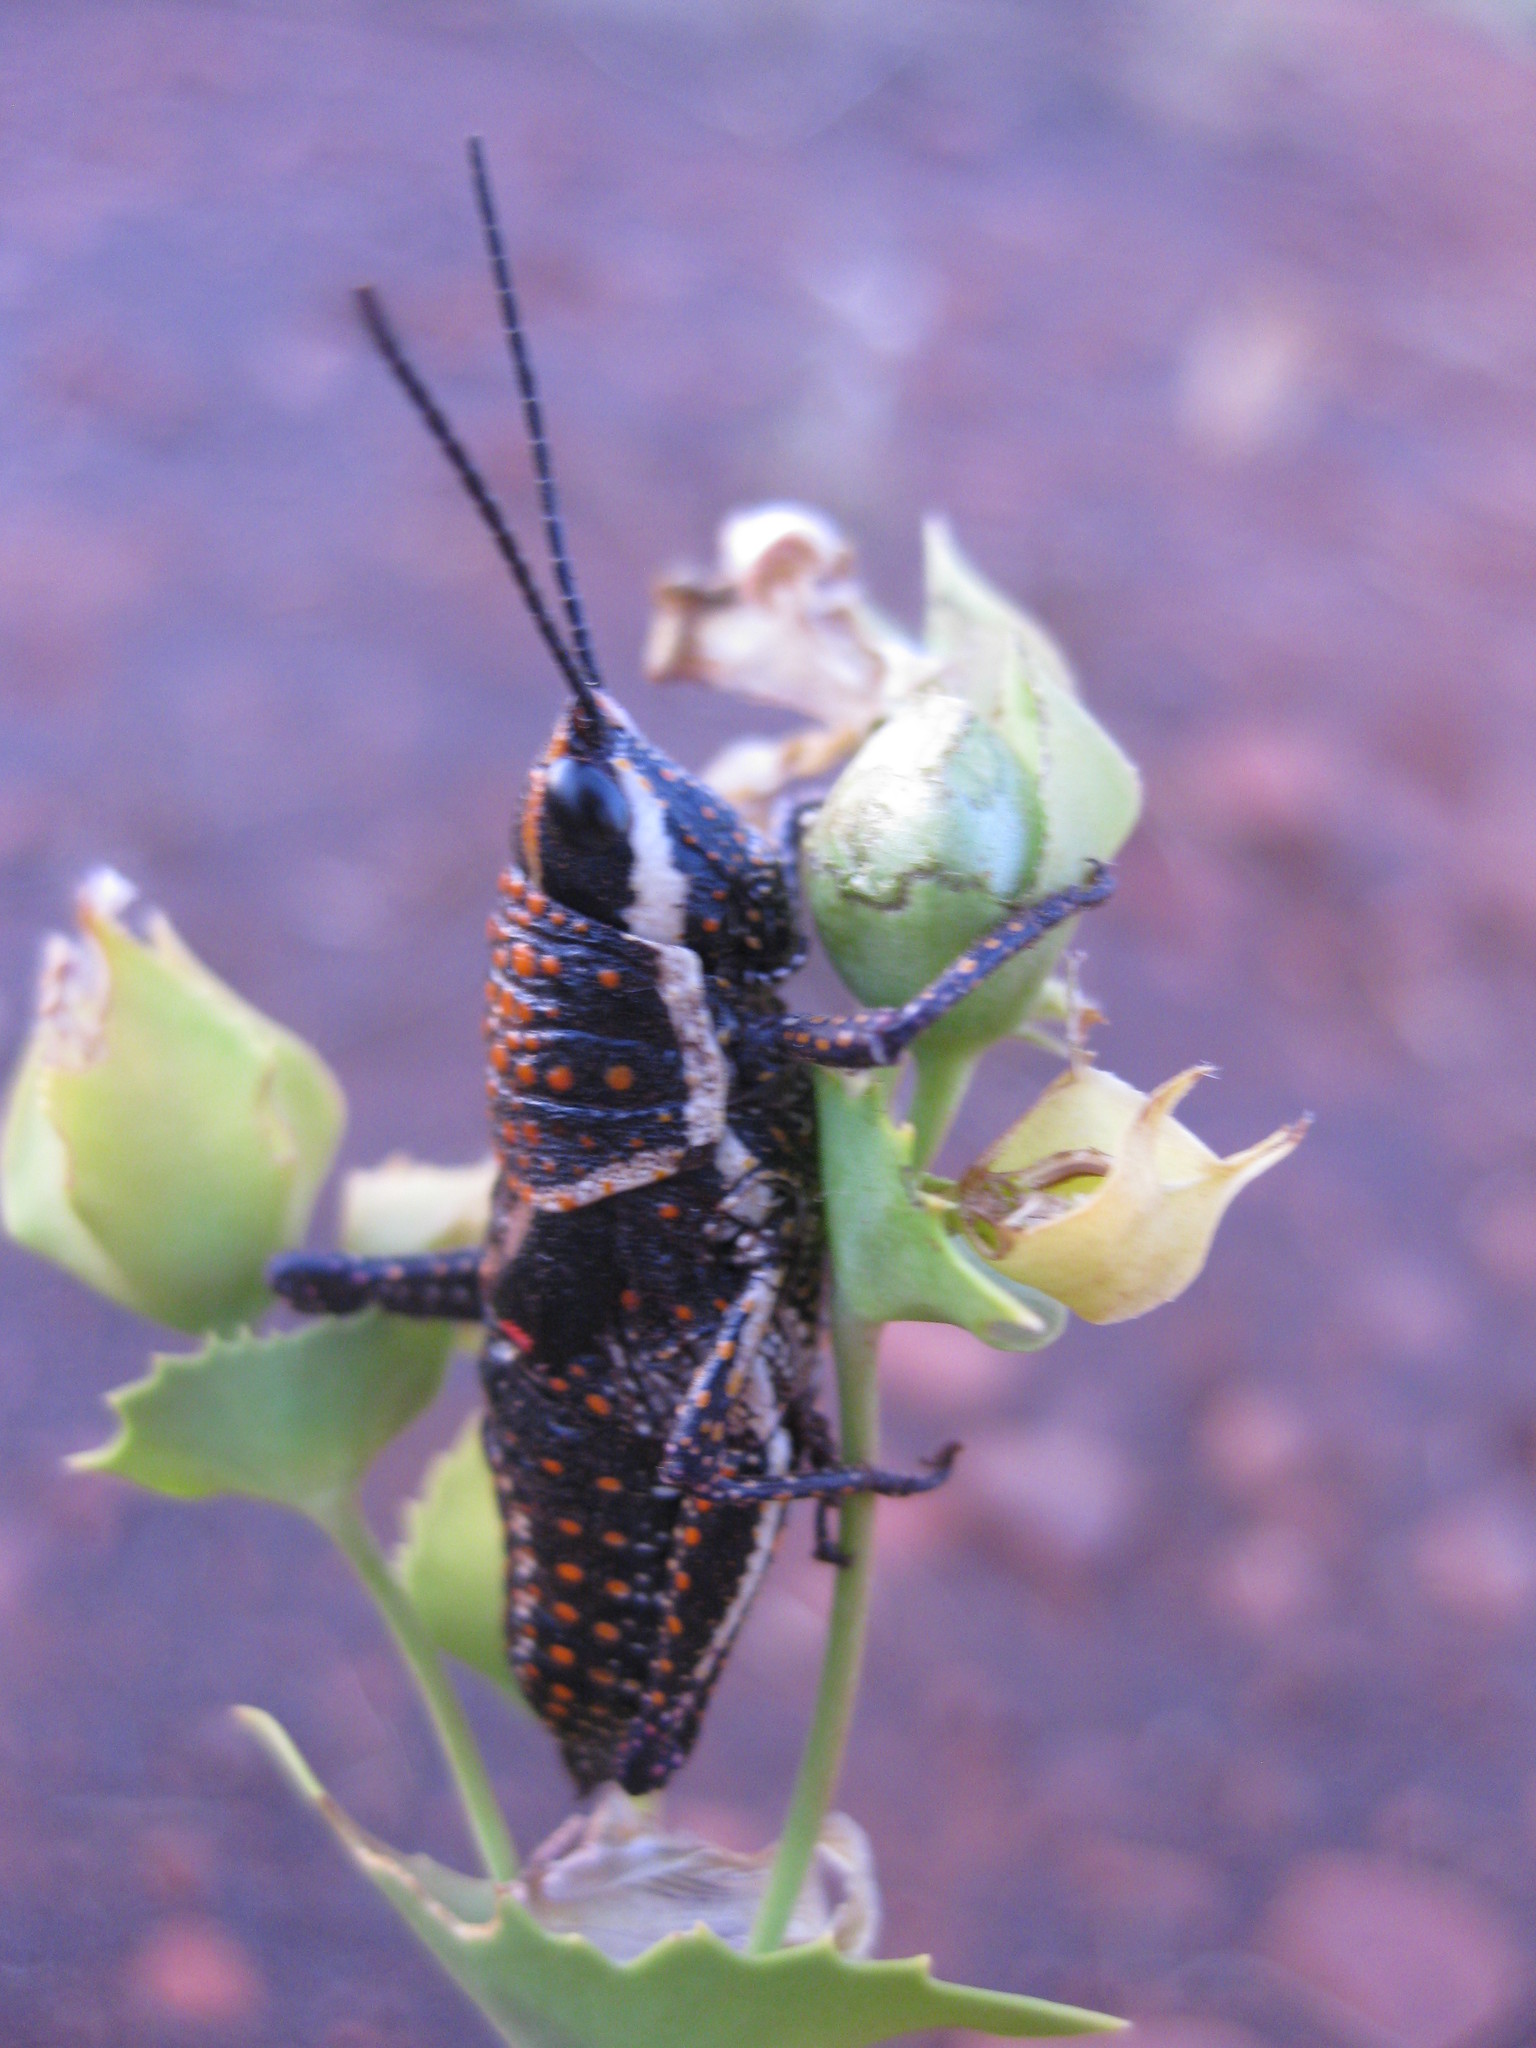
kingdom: Animalia
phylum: Arthropoda
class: Insecta
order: Orthoptera
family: Pyrgomorphidae
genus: Greyacris
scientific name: Greyacris picta
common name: Painted pyromorph
